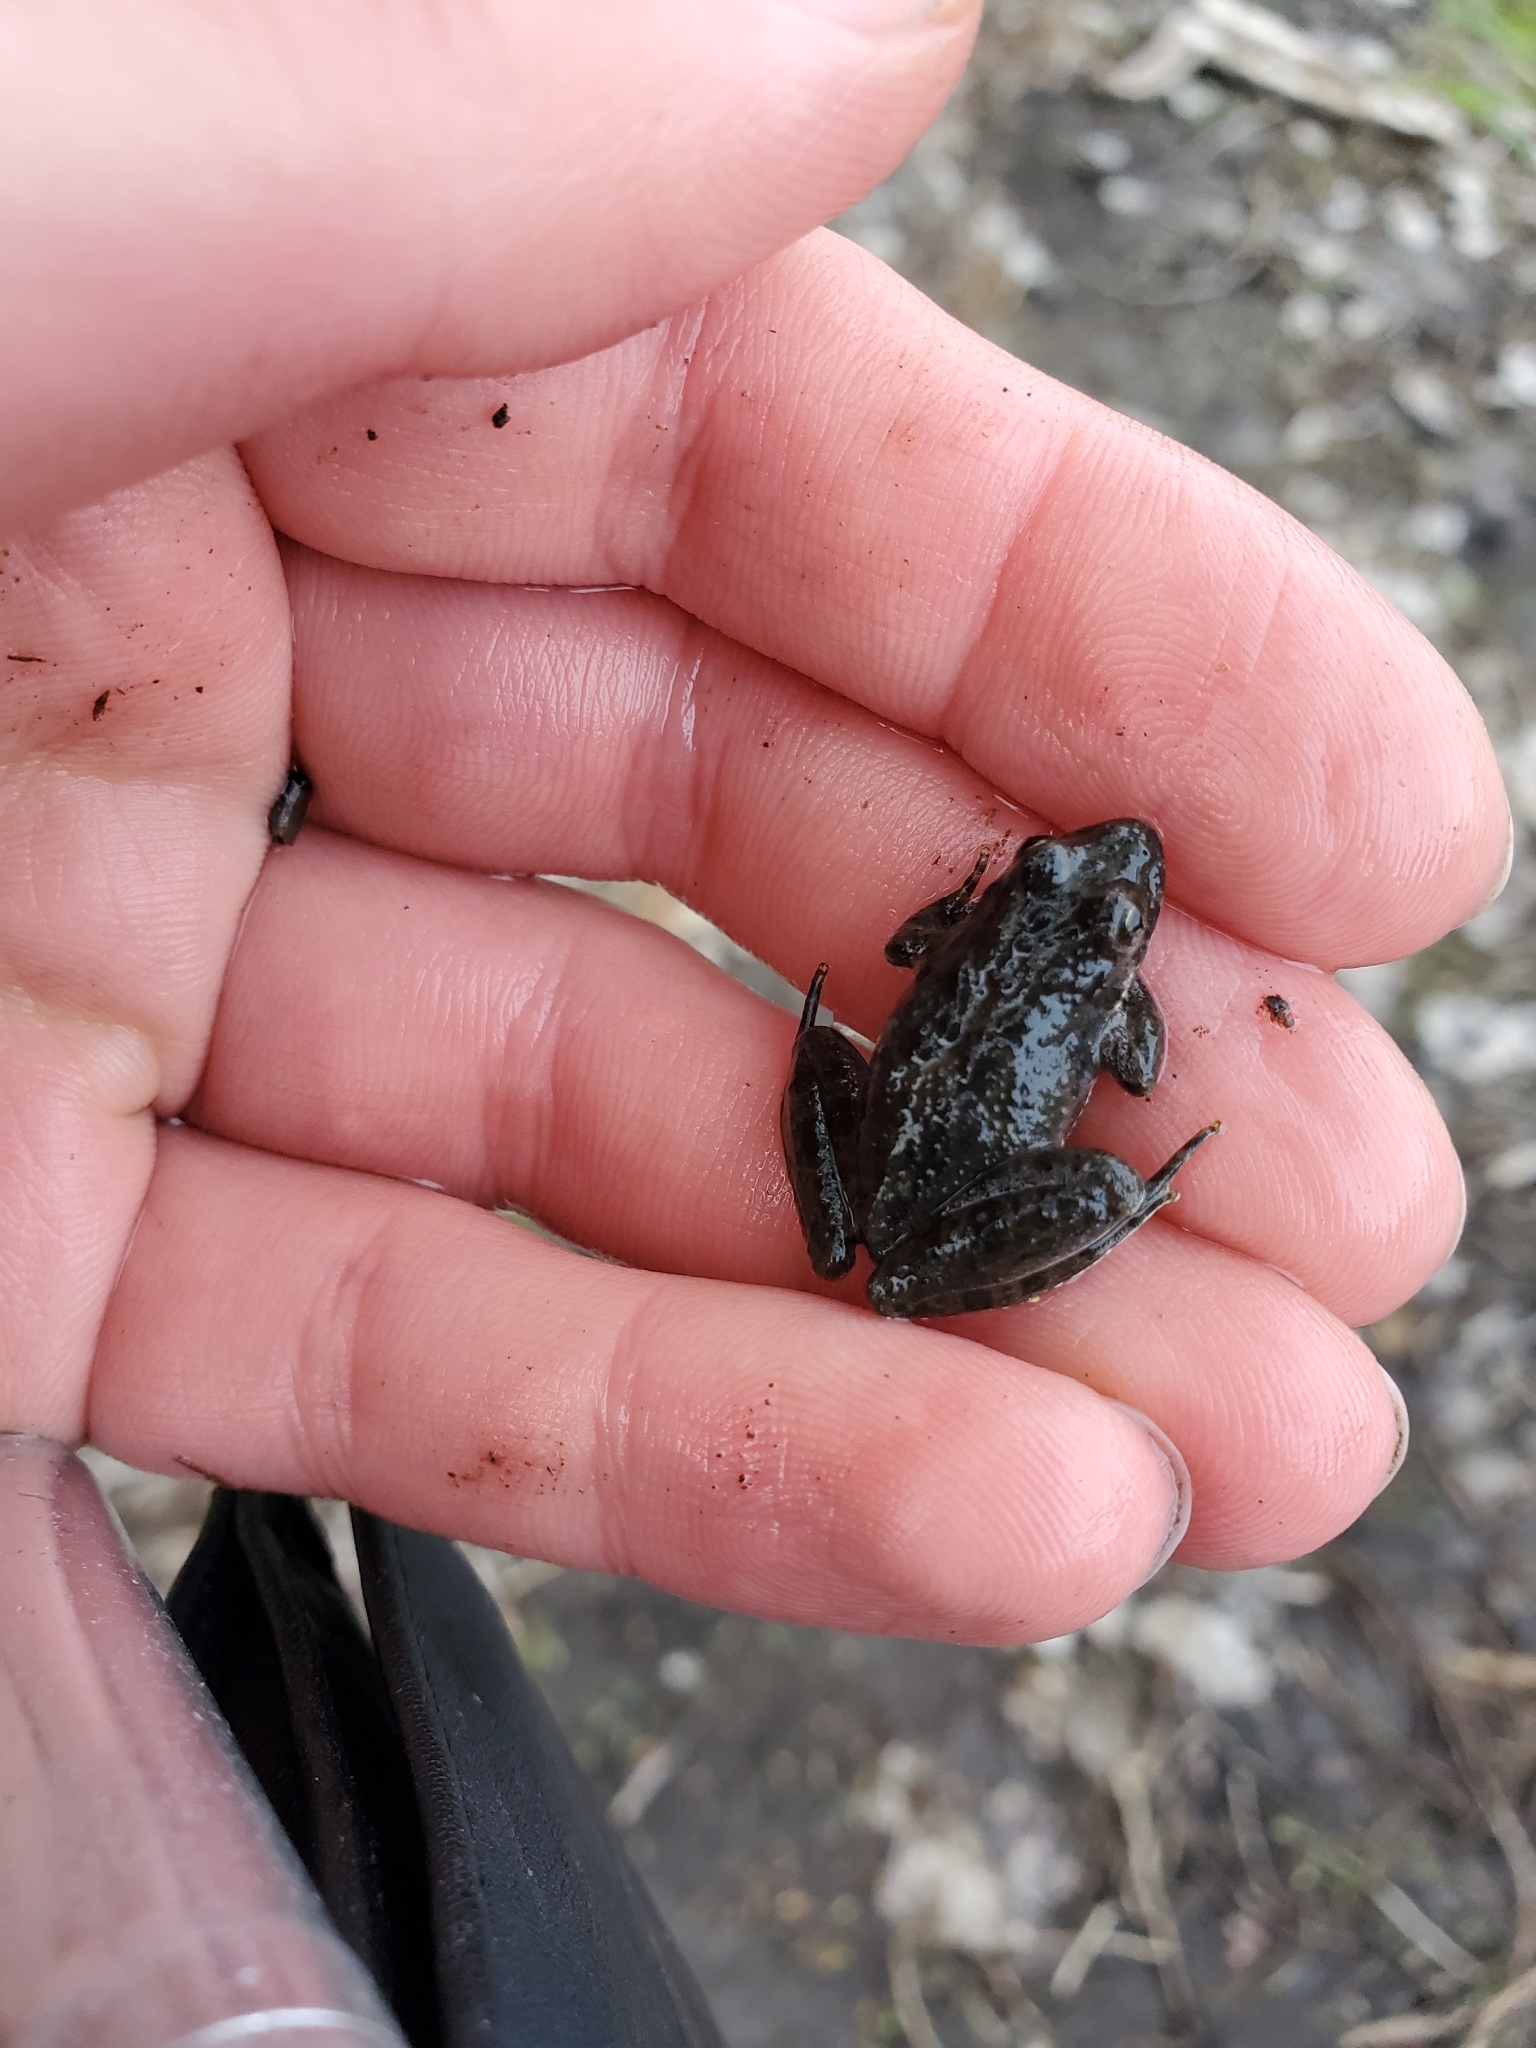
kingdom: Animalia
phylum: Chordata
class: Amphibia
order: Anura
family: Hylidae
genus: Acris
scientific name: Acris blanchardi
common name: Blanchard's cricket frog
